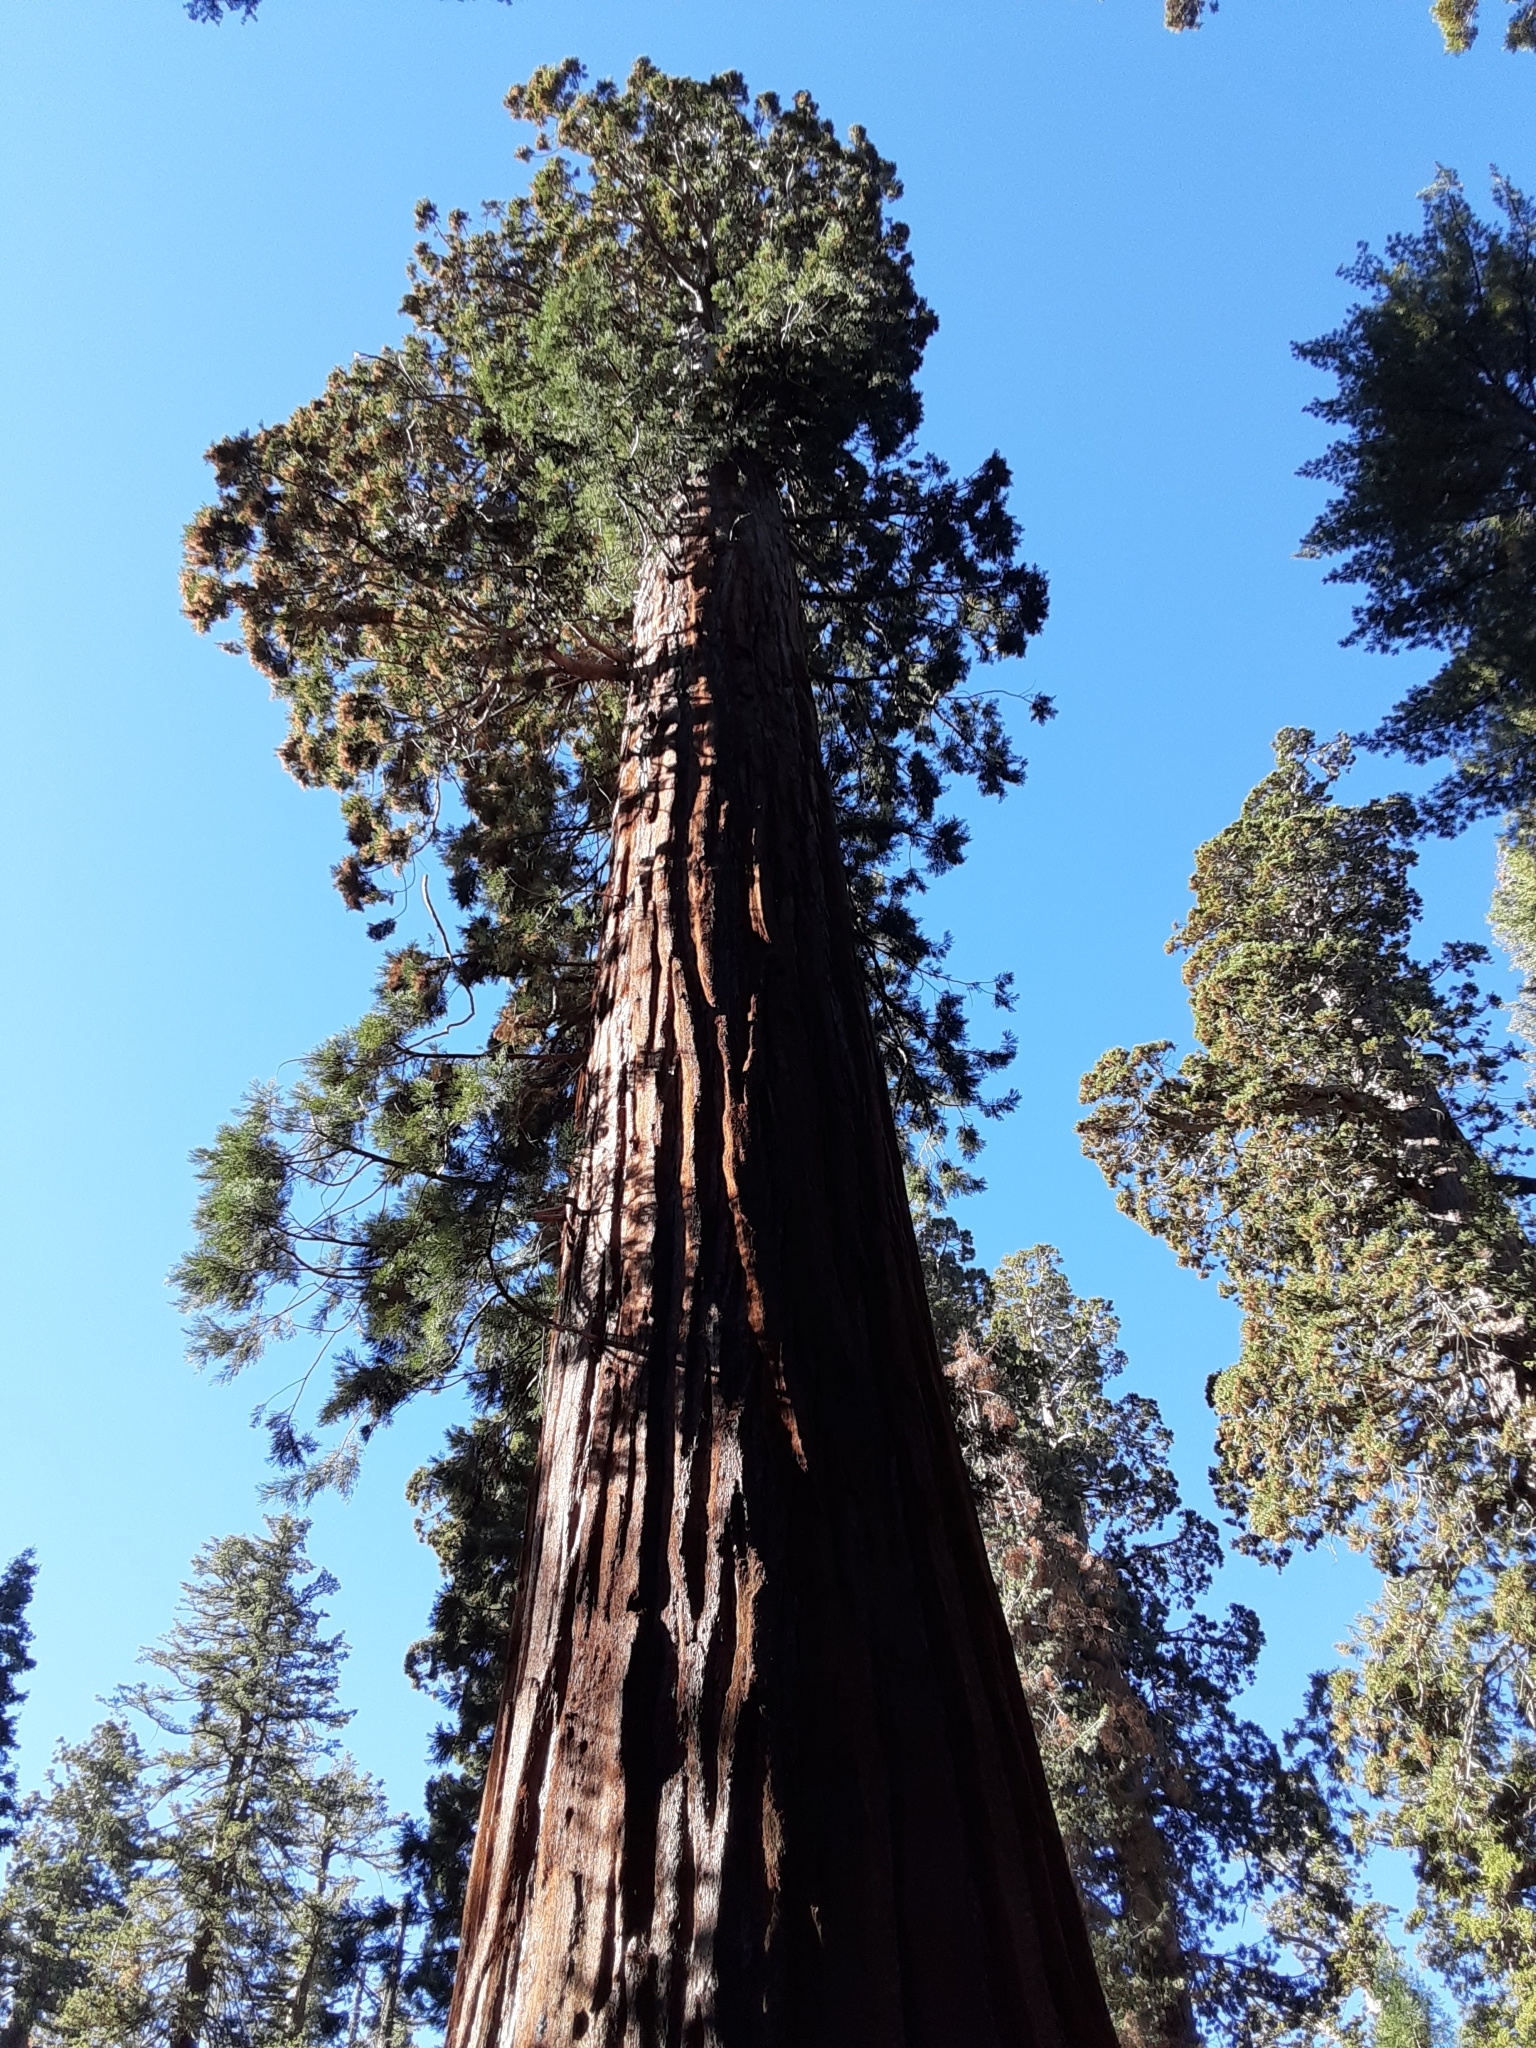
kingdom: Plantae
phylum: Tracheophyta
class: Pinopsida
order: Pinales
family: Cupressaceae
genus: Sequoiadendron
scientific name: Sequoiadendron giganteum
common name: Wellingtonia
